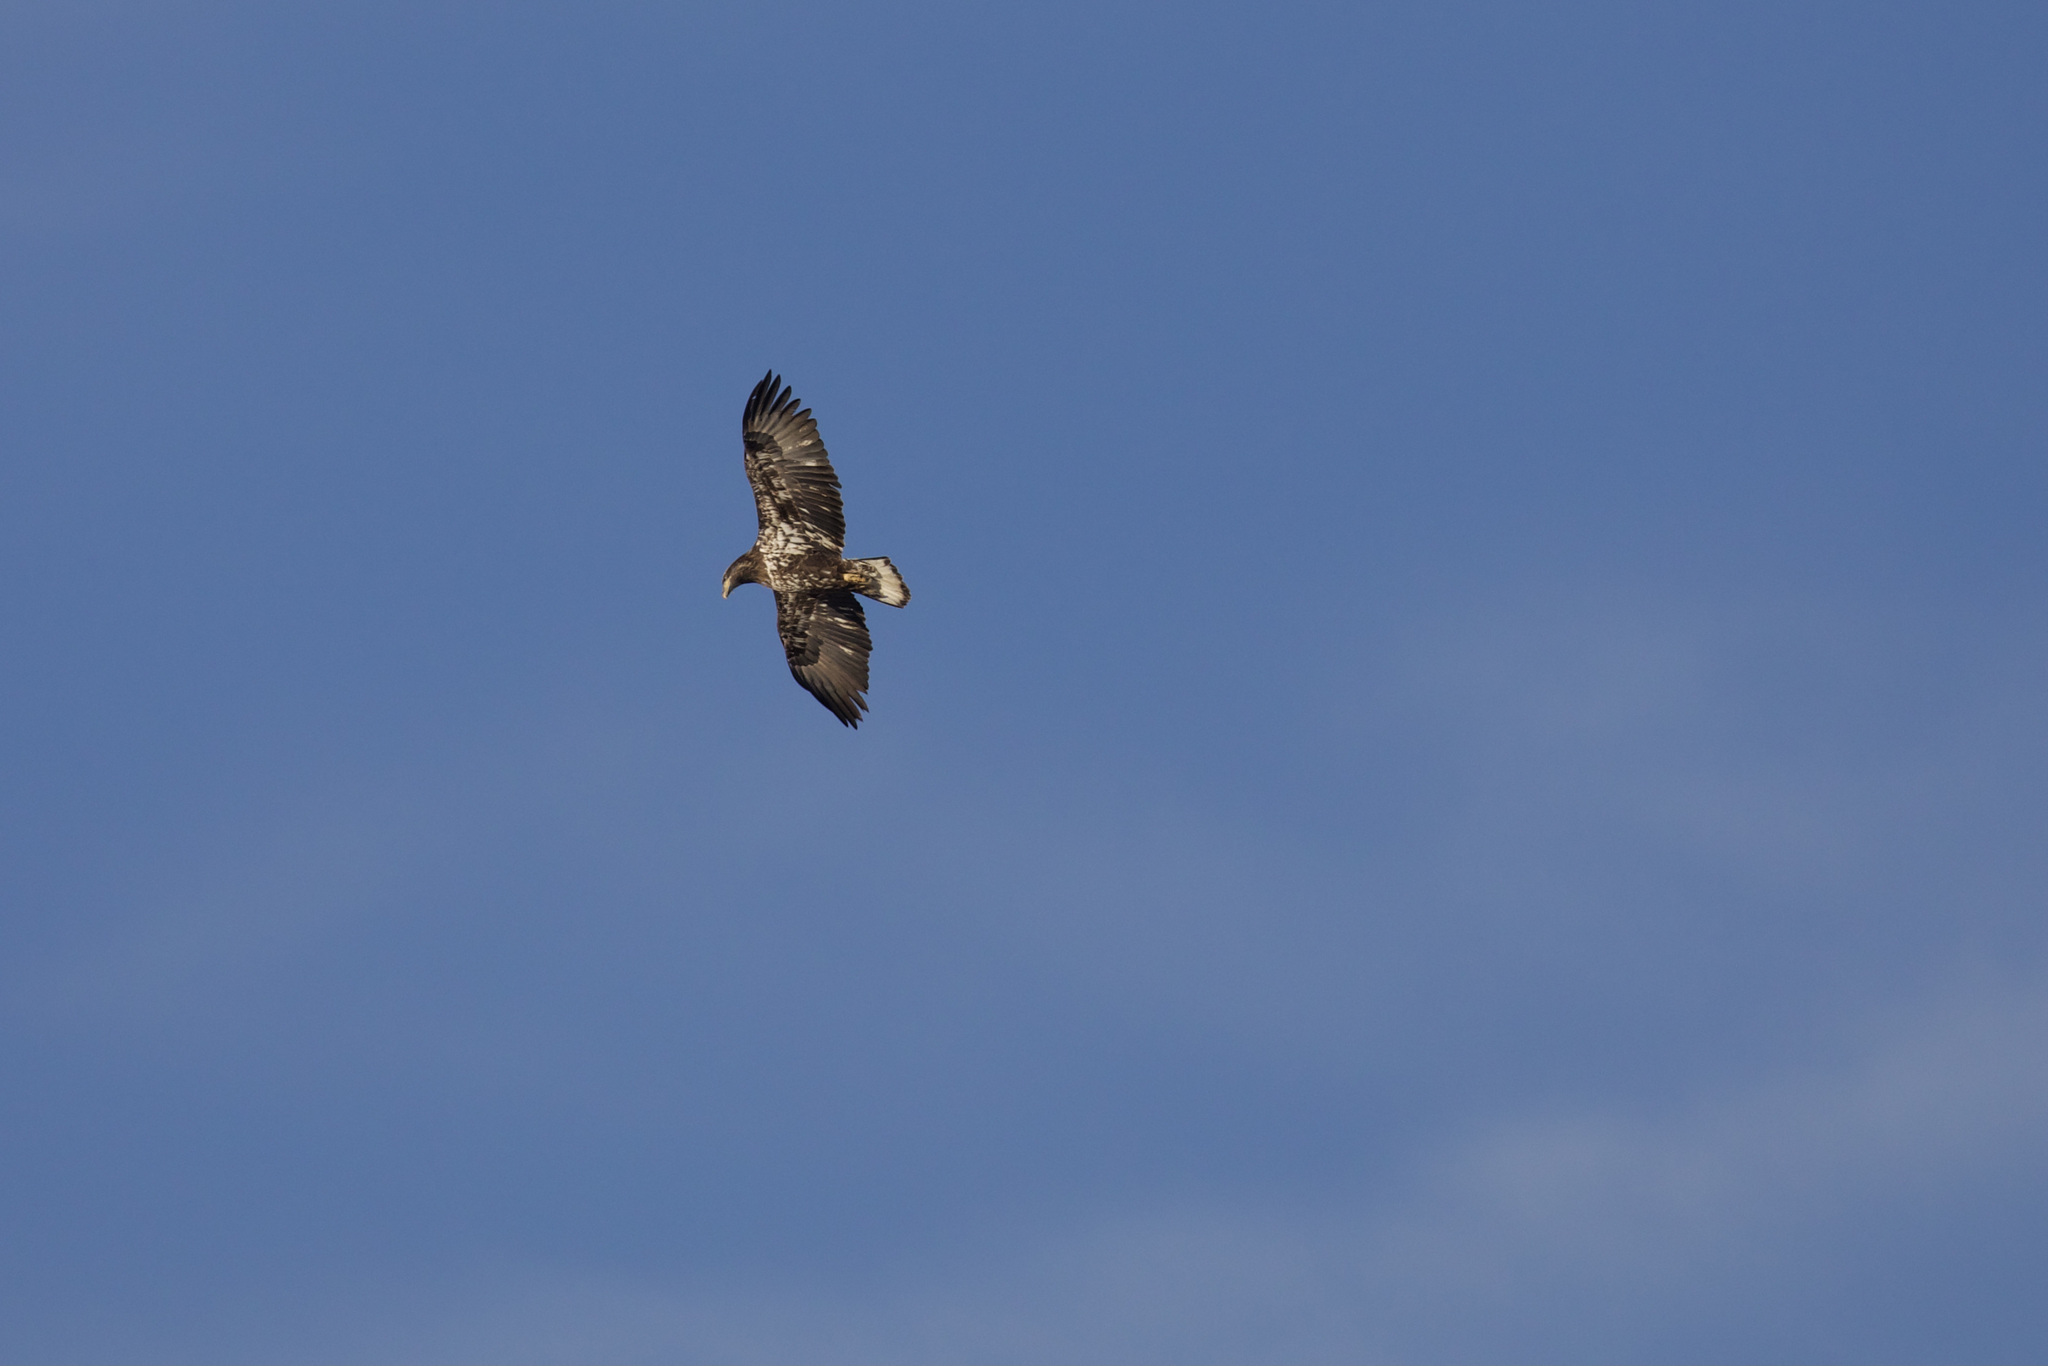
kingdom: Animalia
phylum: Chordata
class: Aves
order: Accipitriformes
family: Accipitridae
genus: Haliaeetus
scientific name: Haliaeetus leucocephalus
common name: Bald eagle
